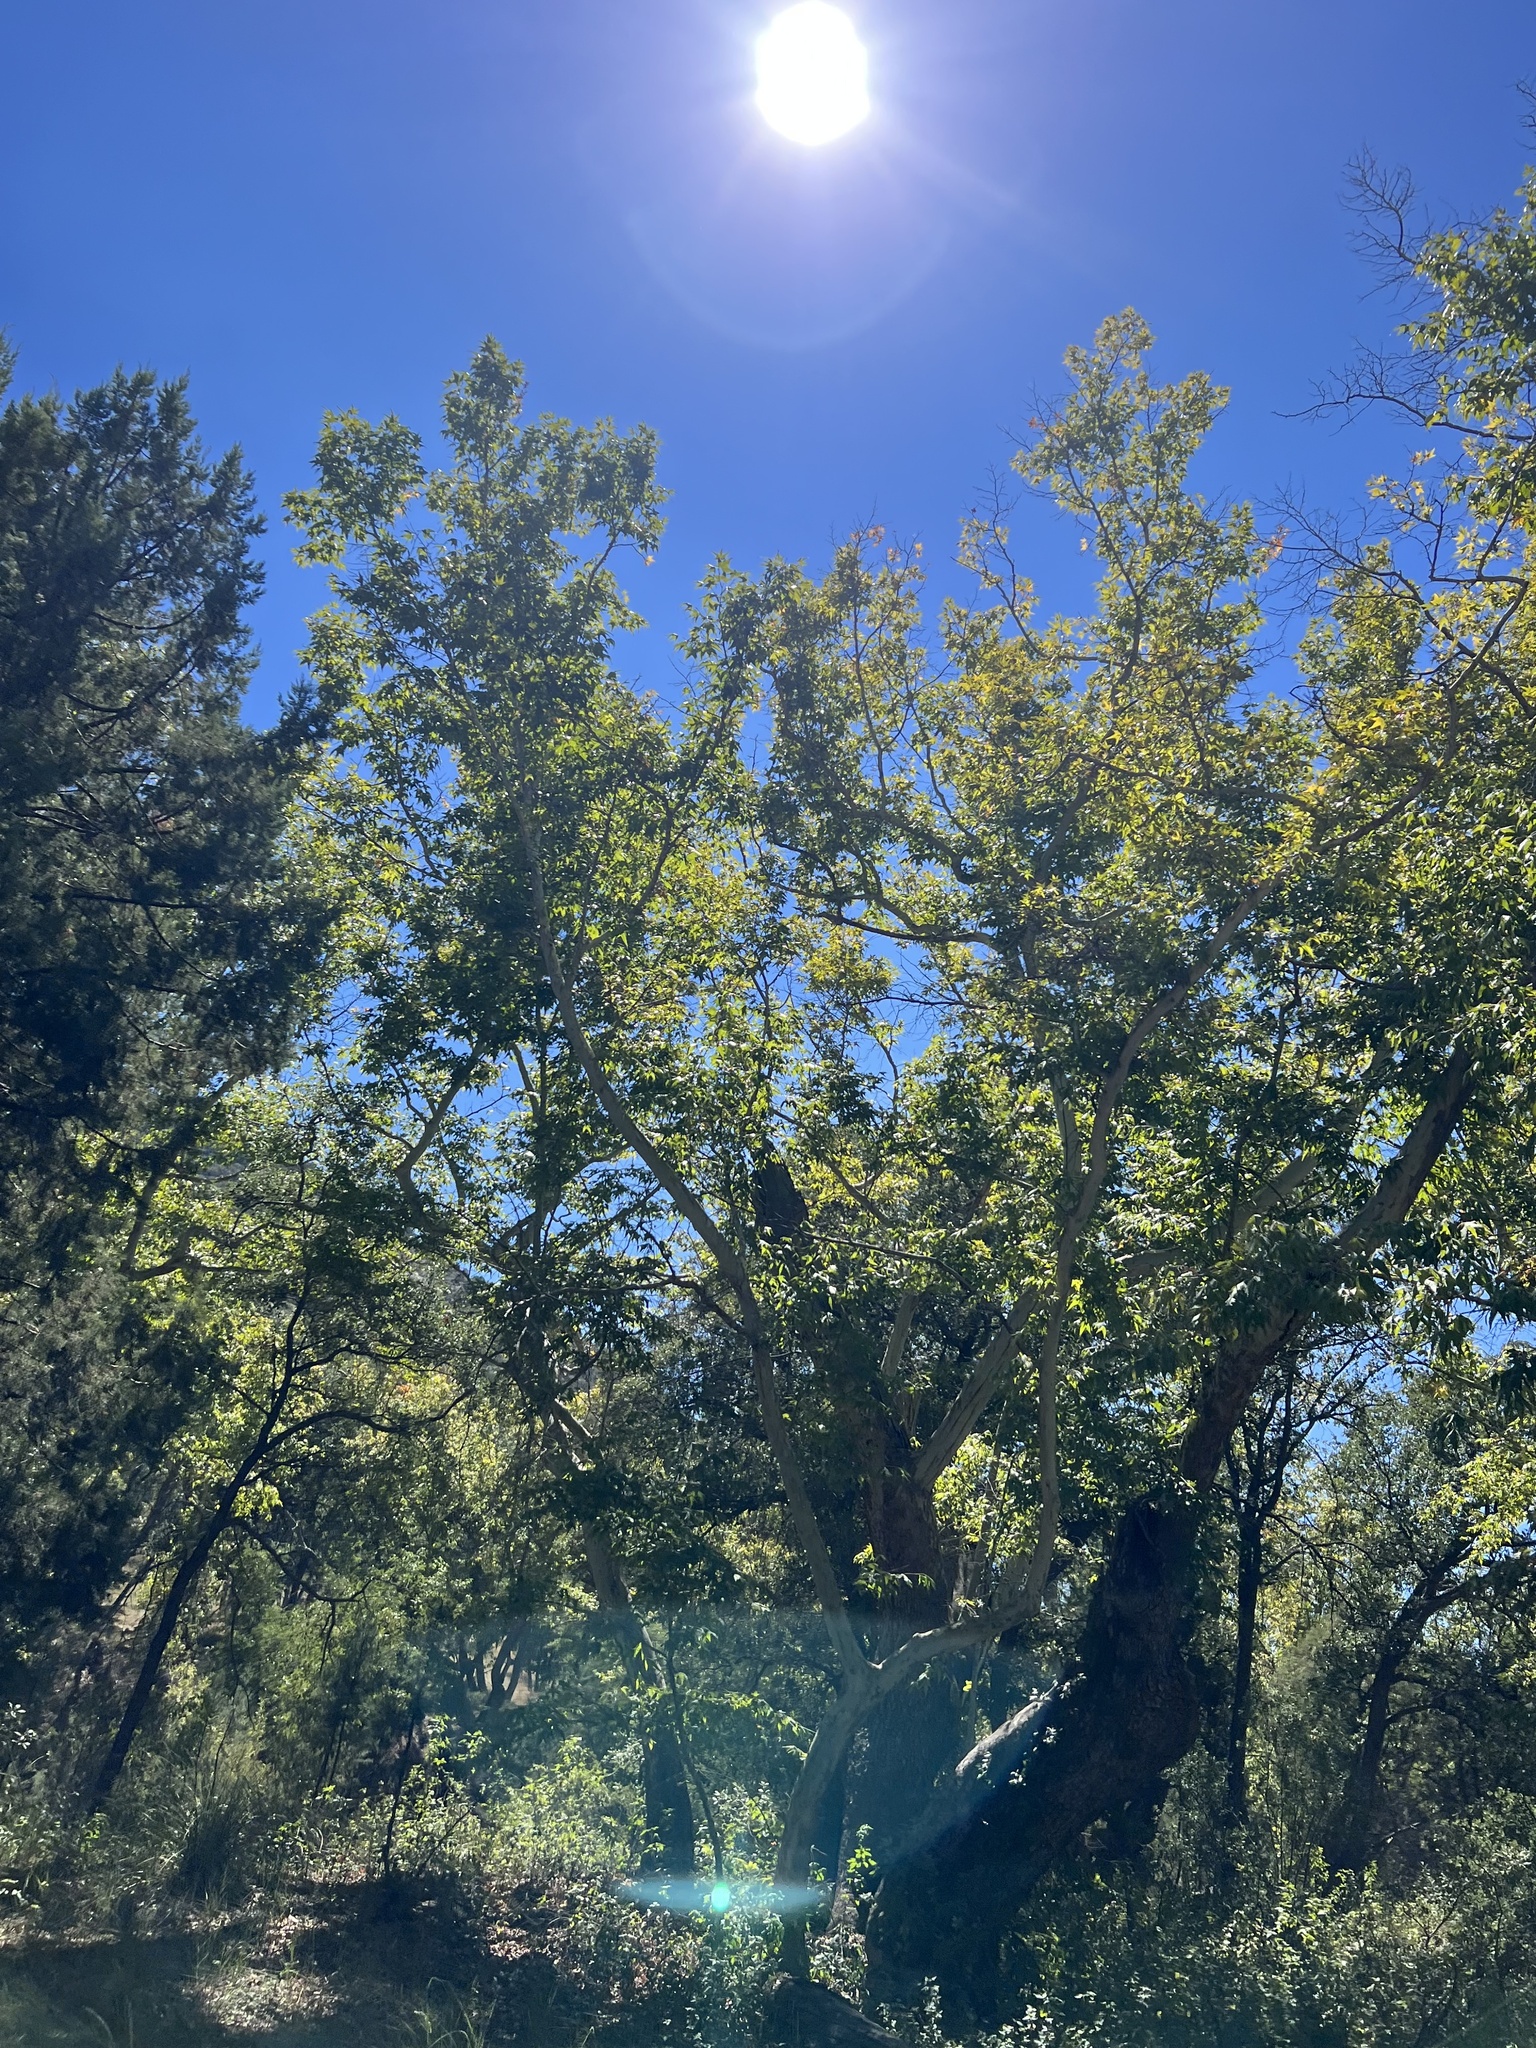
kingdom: Plantae
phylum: Tracheophyta
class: Magnoliopsida
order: Proteales
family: Platanaceae
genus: Platanus
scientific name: Platanus wrightii
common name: Arizona sycamore
